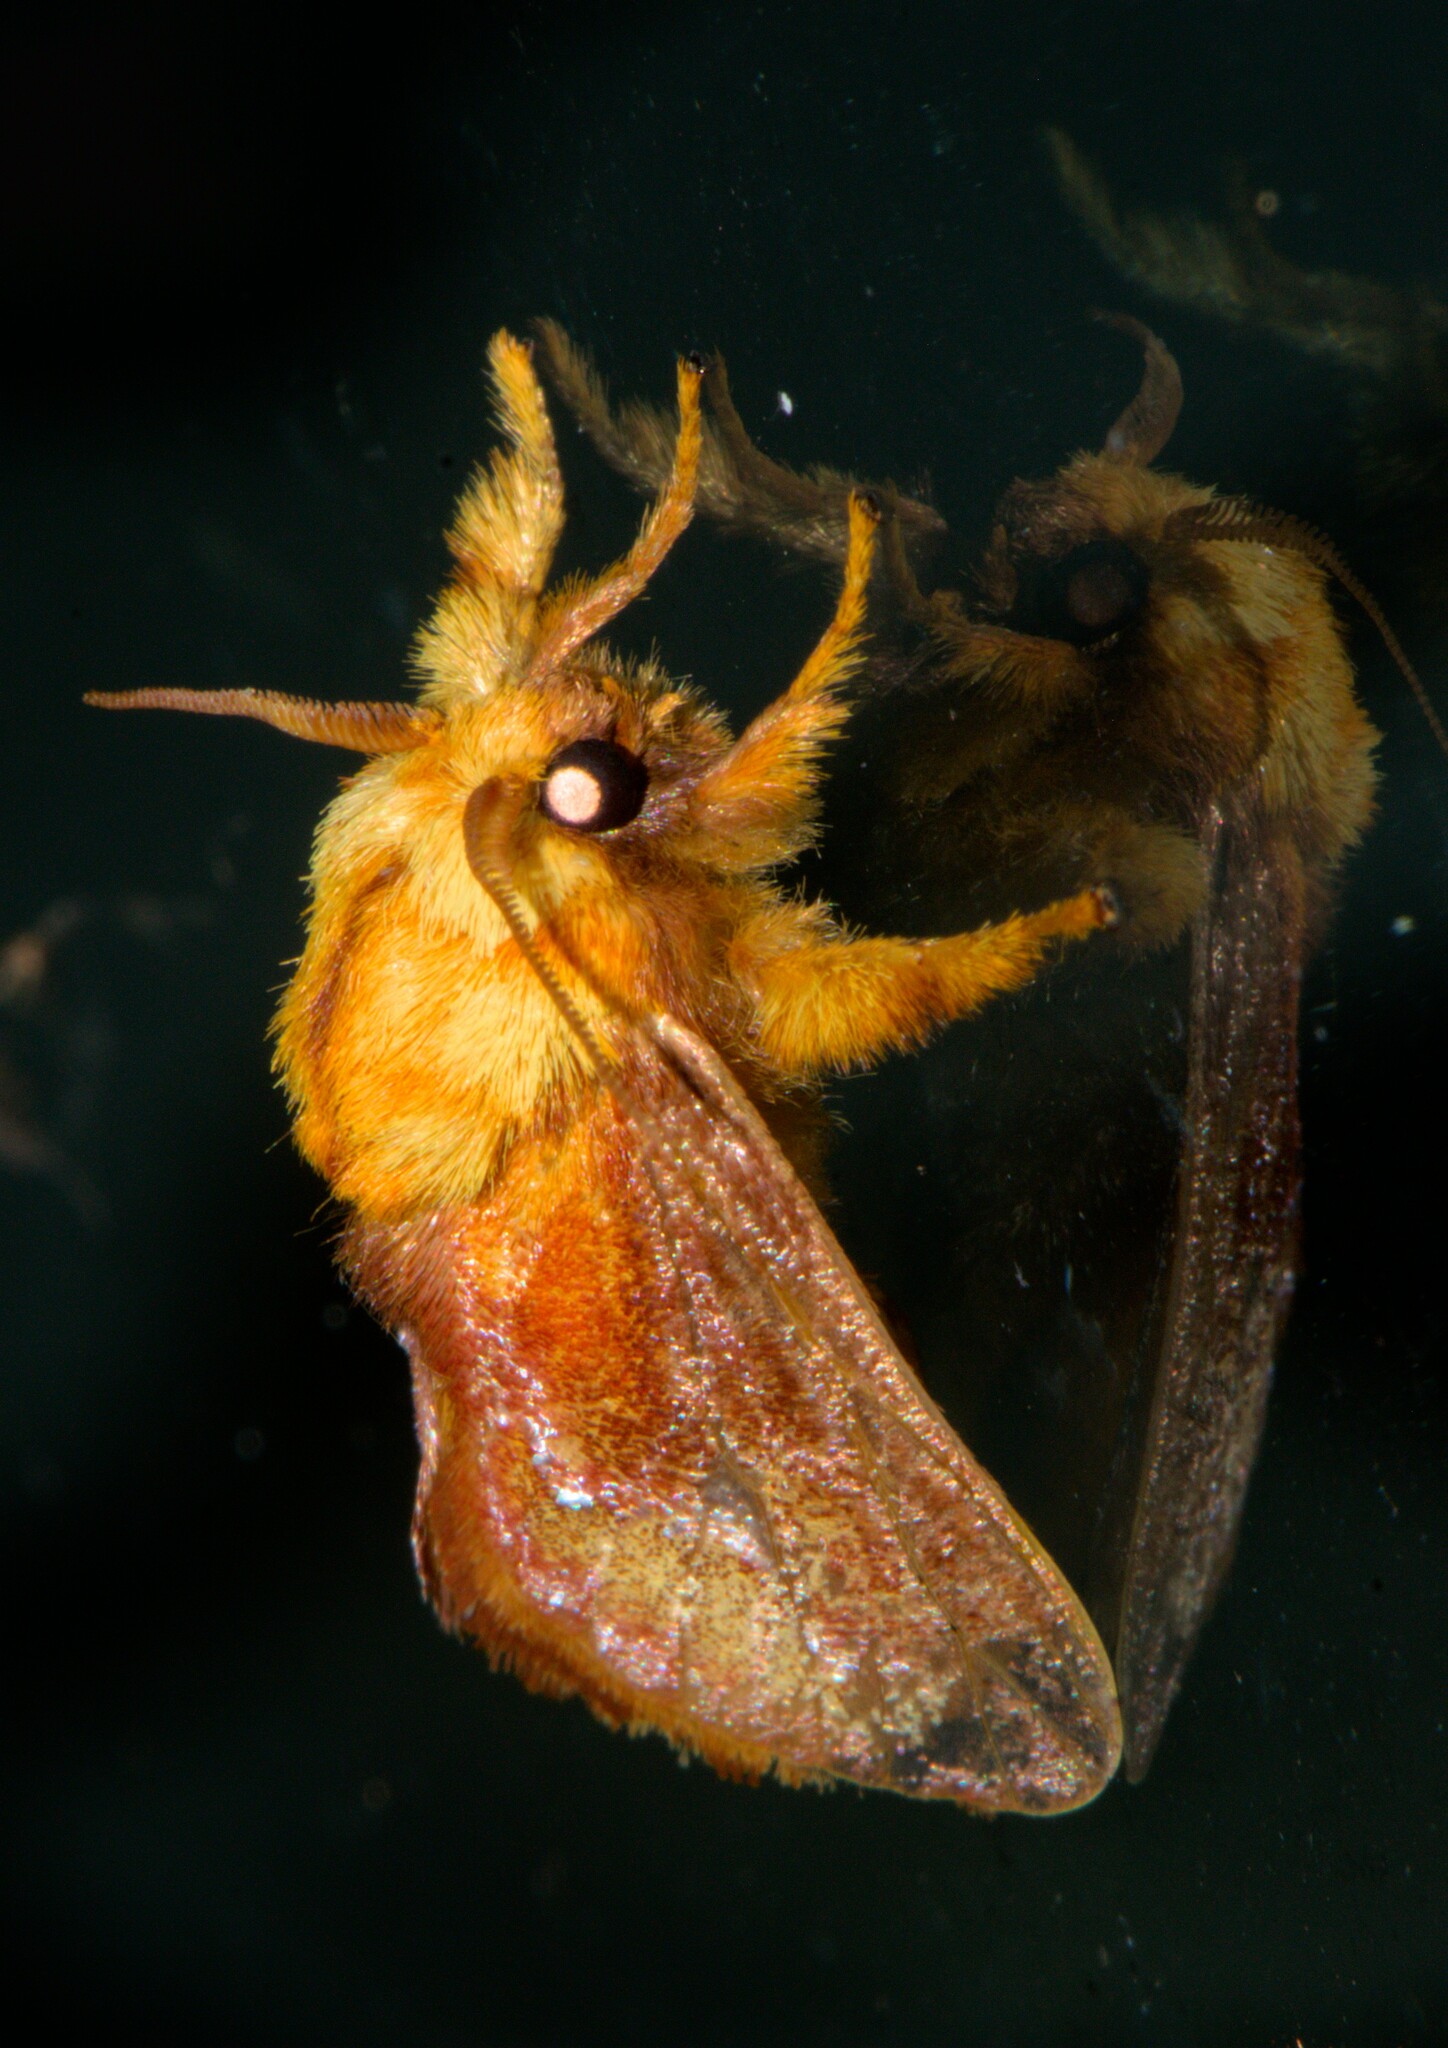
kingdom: Animalia
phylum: Arthropoda
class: Insecta
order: Lepidoptera
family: Limacodidae
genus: Miresa
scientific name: Miresa bracteata
